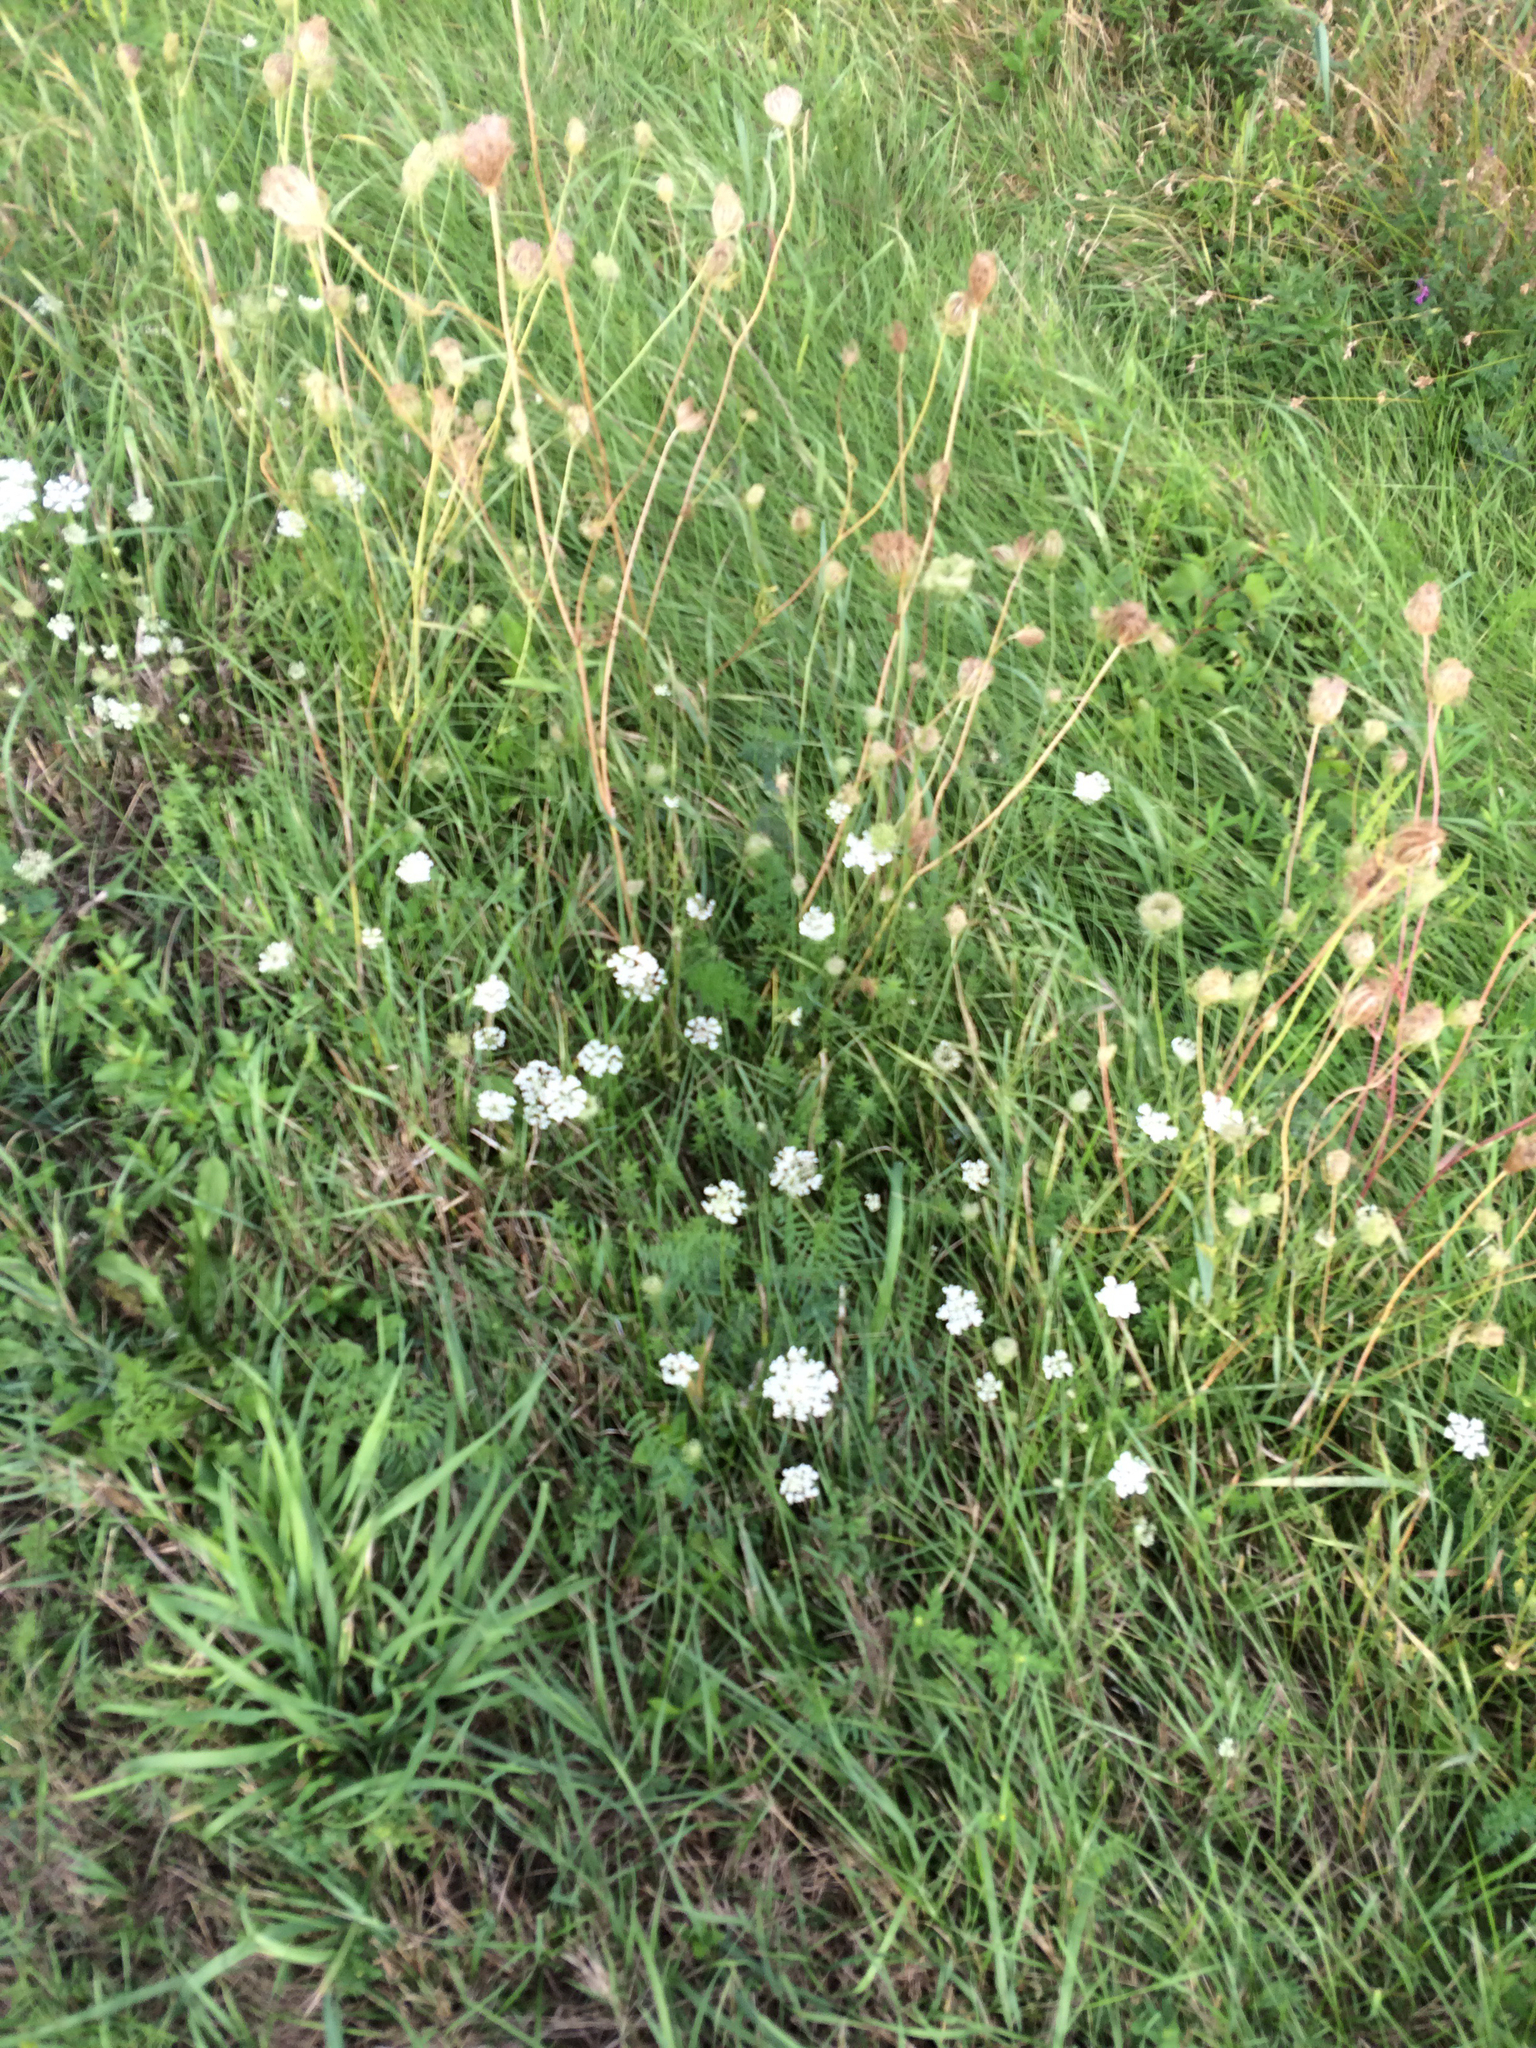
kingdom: Plantae
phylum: Tracheophyta
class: Magnoliopsida
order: Apiales
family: Apiaceae
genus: Daucus
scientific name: Daucus carota
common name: Wild carrot
